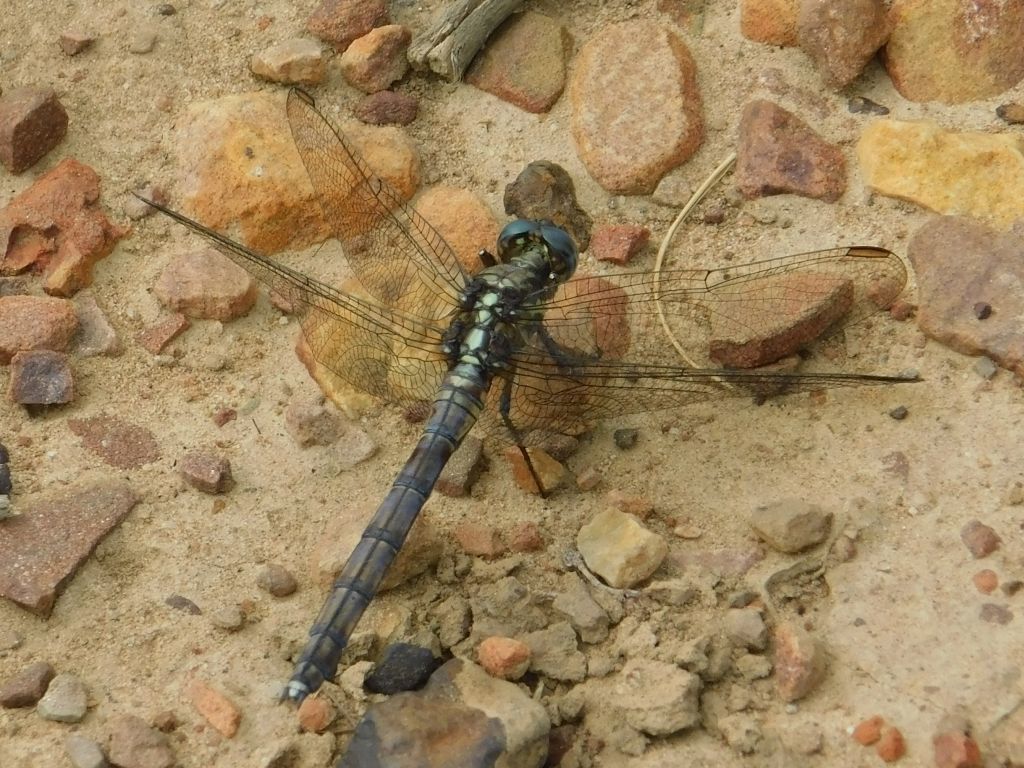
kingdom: Animalia
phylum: Arthropoda
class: Insecta
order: Odonata
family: Libellulidae
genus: Orthetrum
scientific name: Orthetrum julia
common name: Julia skimmer
